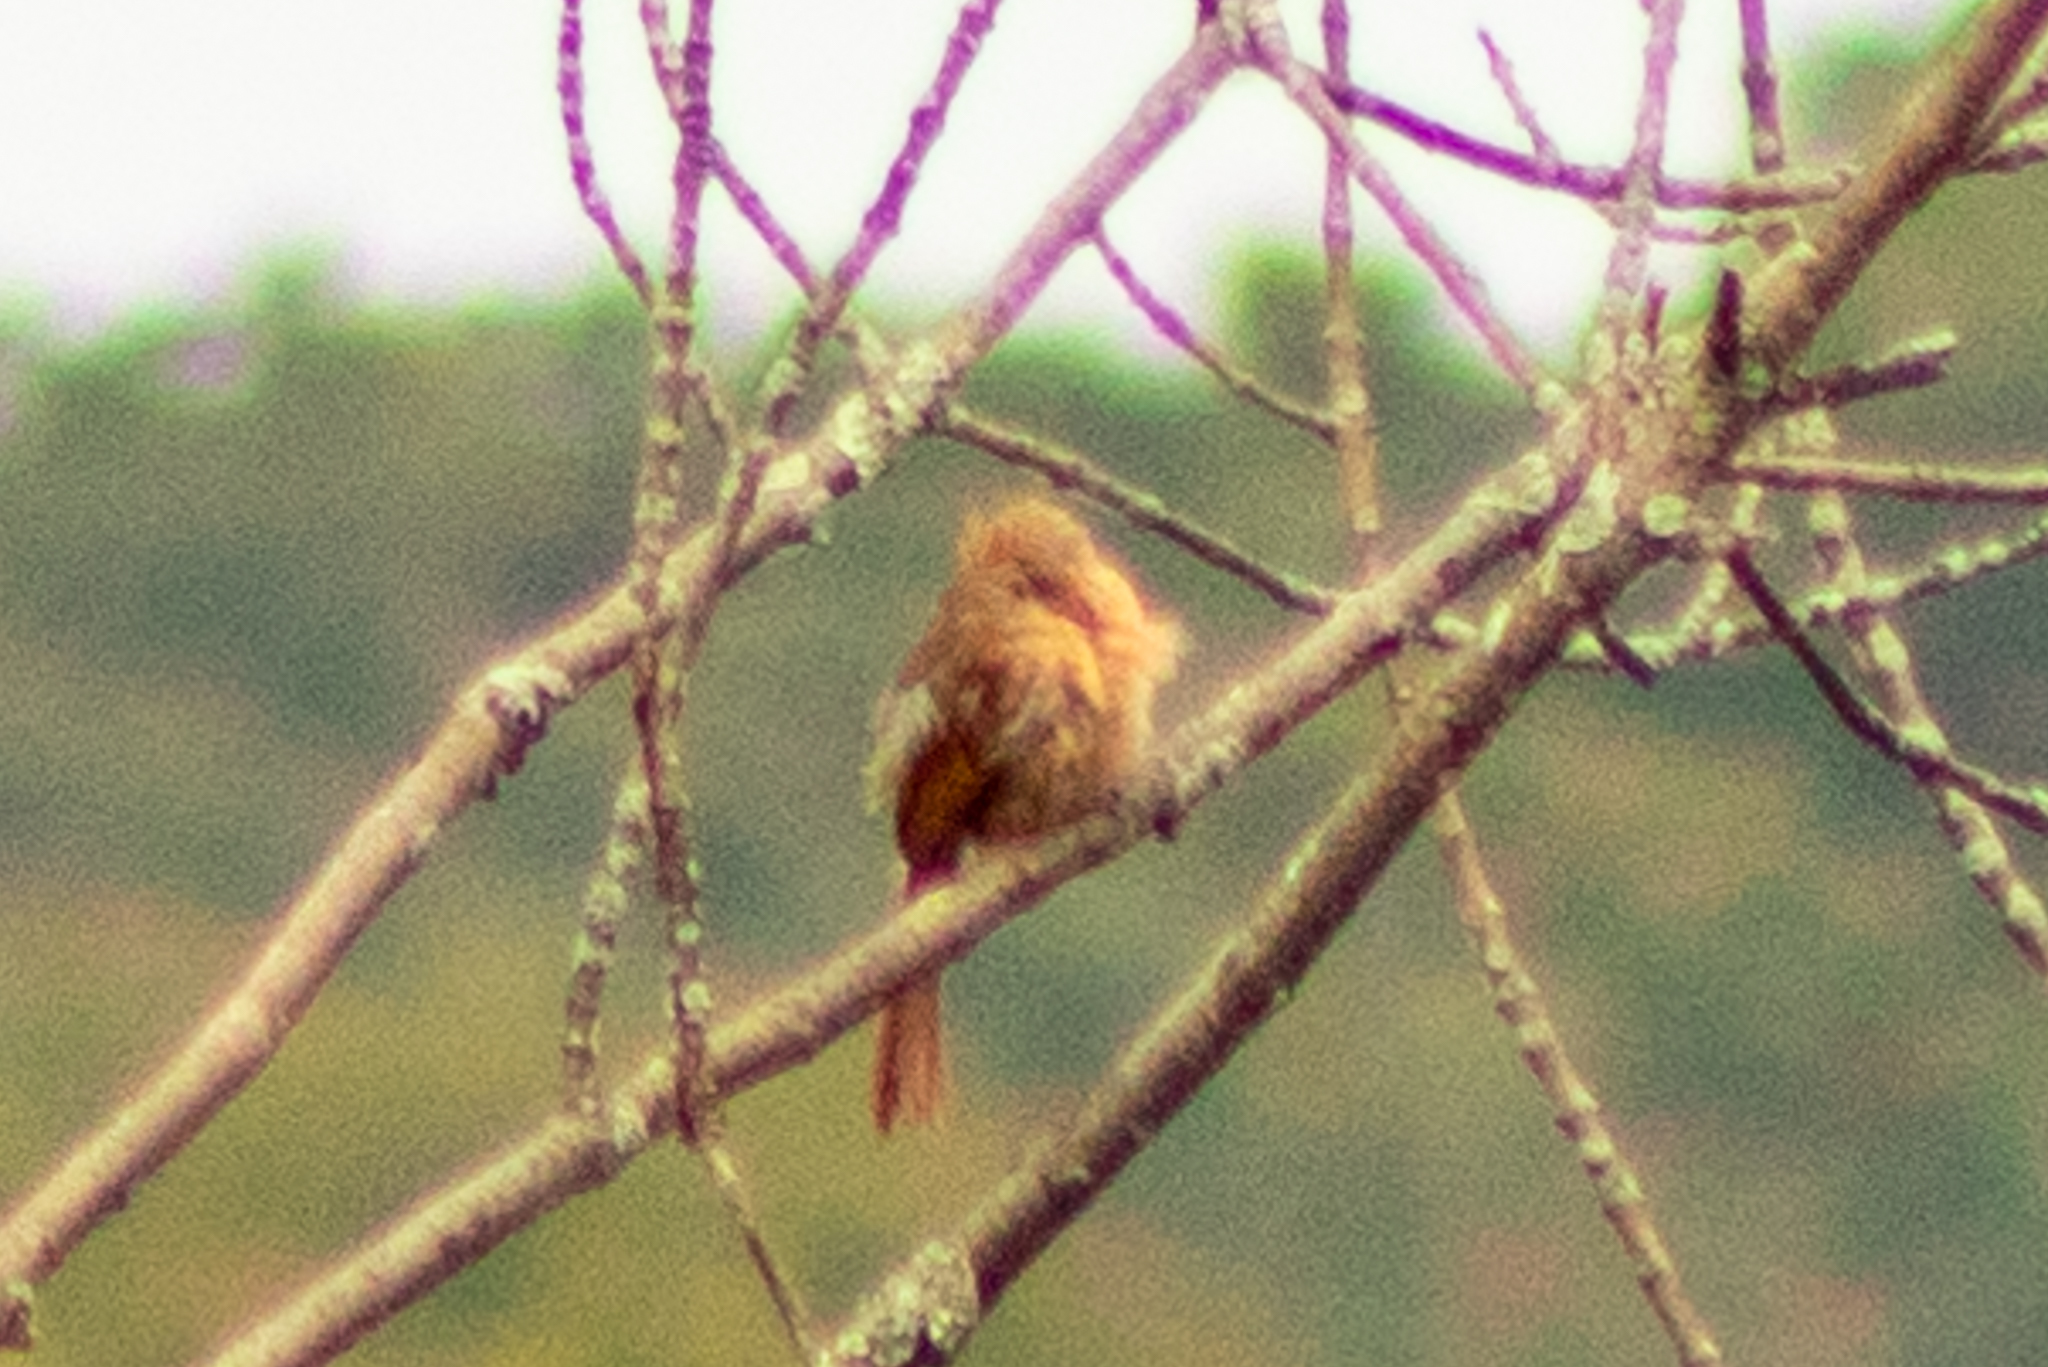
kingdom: Animalia
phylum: Chordata
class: Aves
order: Passeriformes
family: Cardinalidae
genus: Cardinalis
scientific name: Cardinalis cardinalis
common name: Northern cardinal
